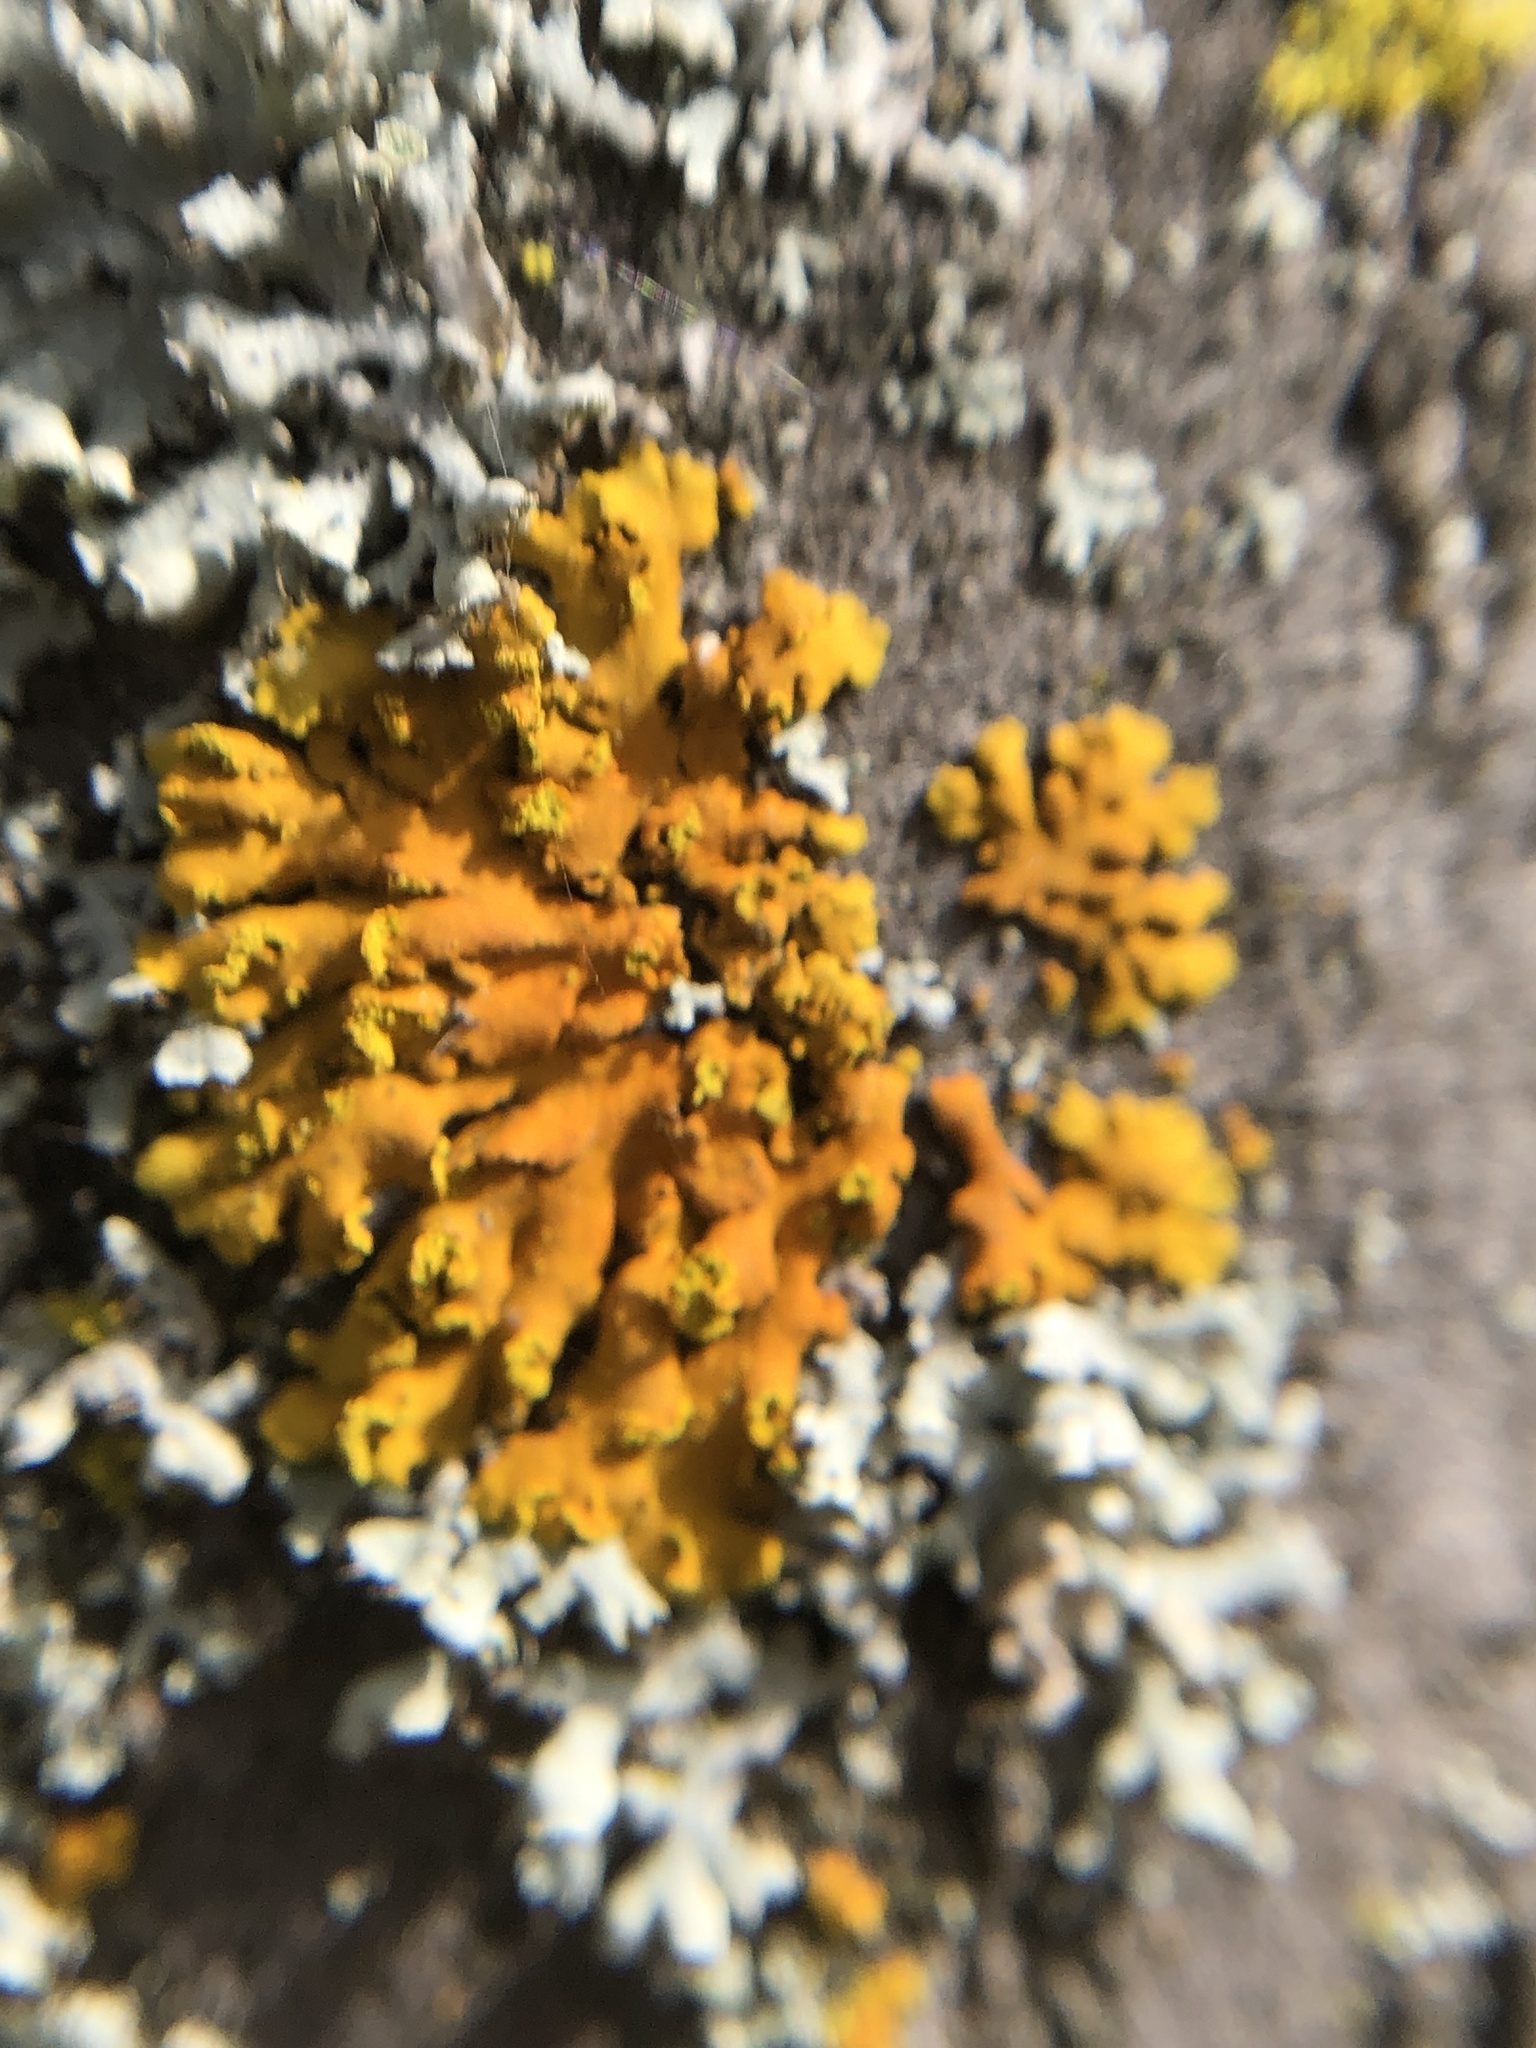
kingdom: Fungi
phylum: Ascomycota
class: Lecanoromycetes
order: Teloschistales
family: Teloschistaceae
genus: Oxneria
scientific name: Oxneria fallax
